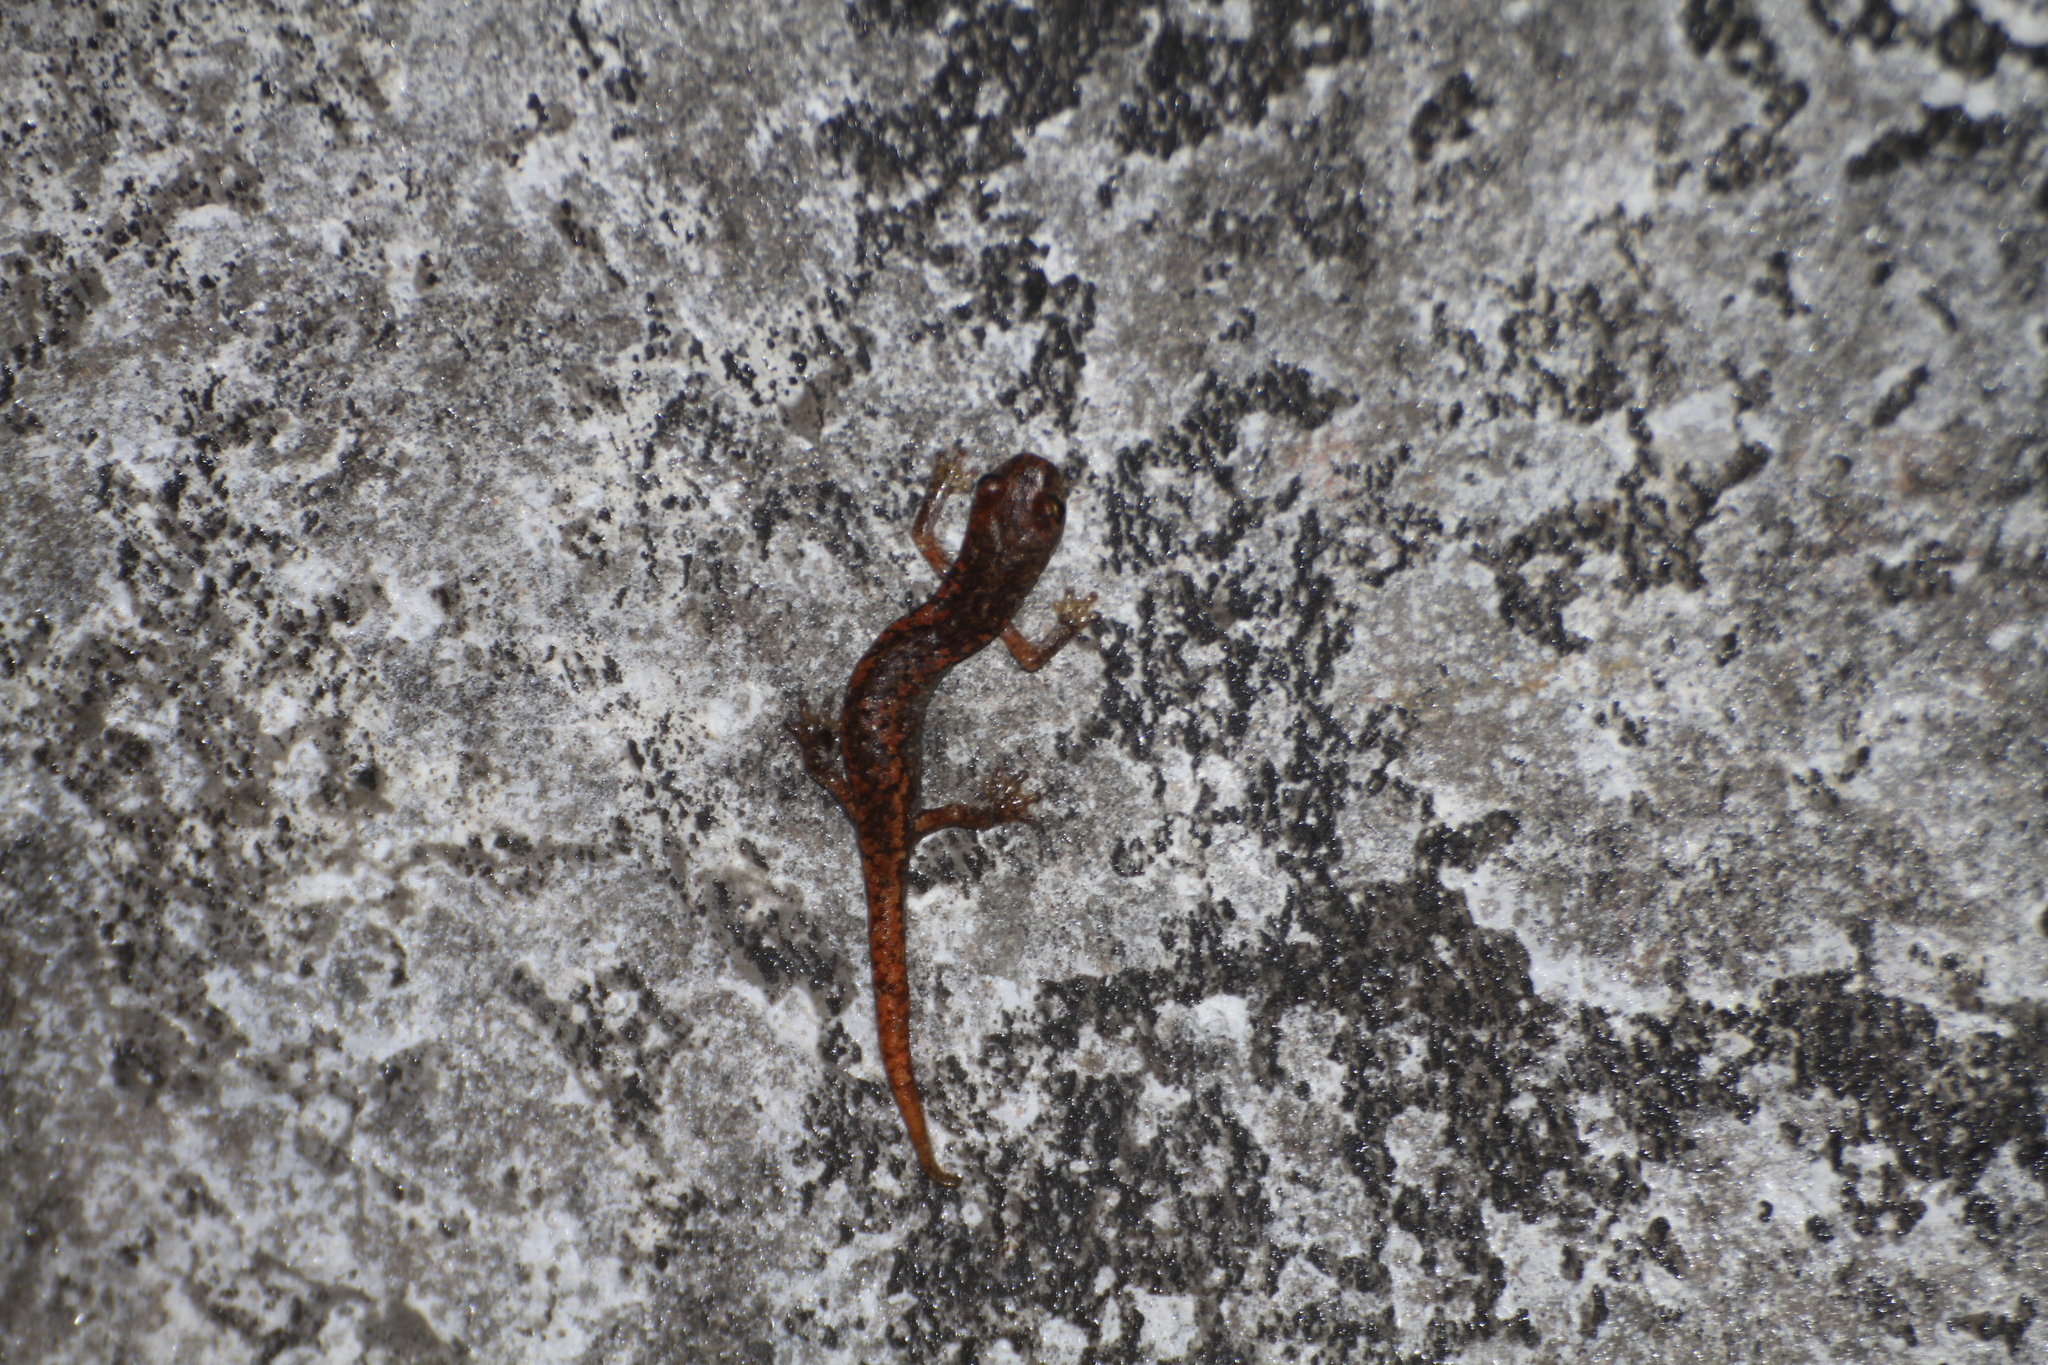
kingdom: Animalia
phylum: Chordata
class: Amphibia
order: Caudata
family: Plethodontidae
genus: Speleomantes
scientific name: Speleomantes strinatii
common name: French cave salamander
